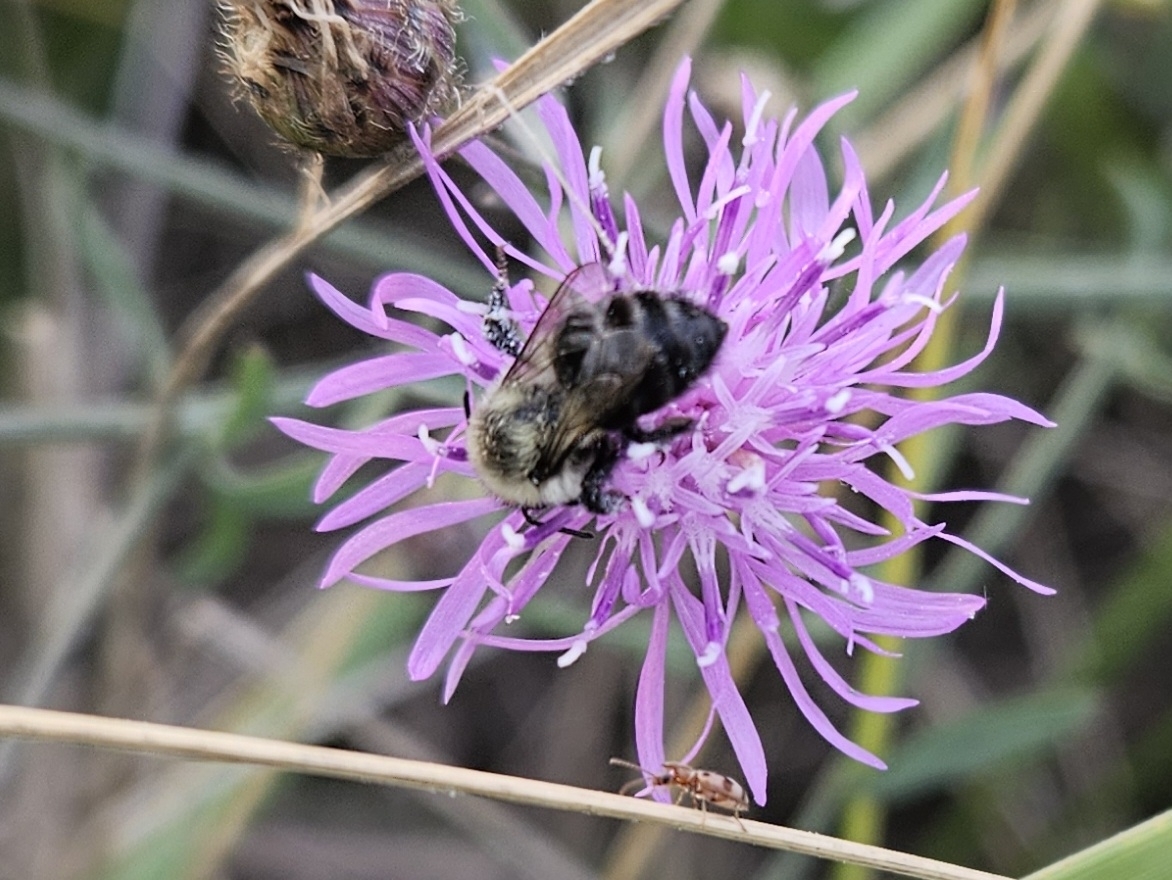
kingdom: Animalia
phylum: Arthropoda
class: Insecta
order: Hymenoptera
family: Apidae
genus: Bombus
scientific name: Bombus impatiens
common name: Common eastern bumble bee
